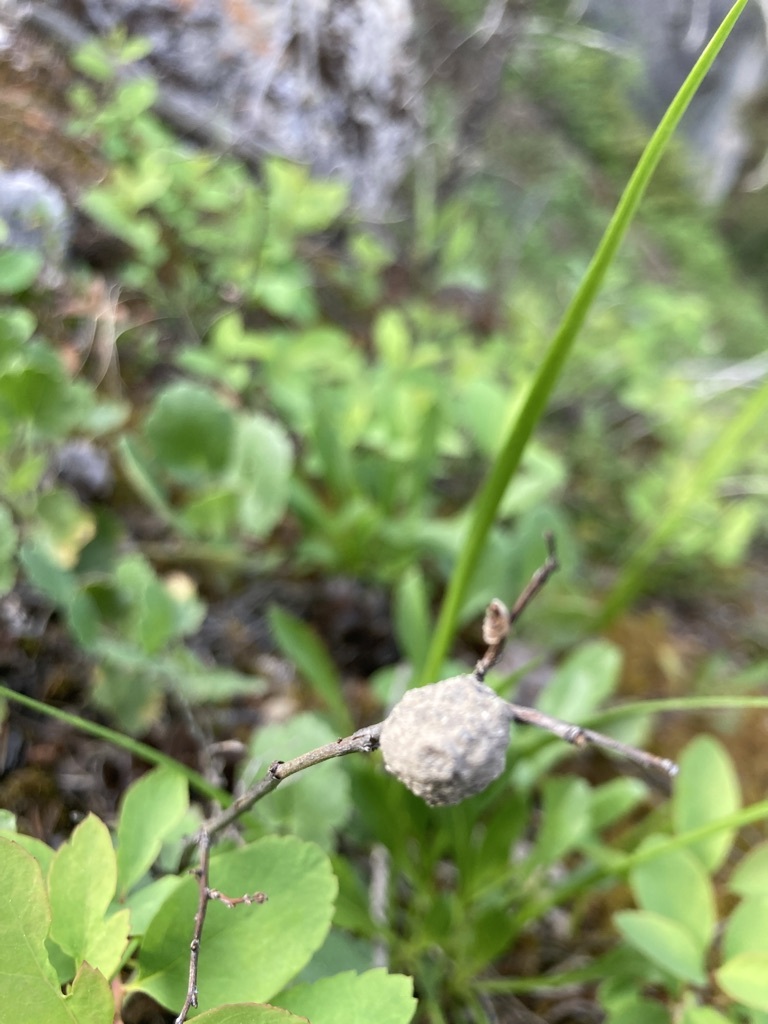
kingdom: Animalia
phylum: Arthropoda
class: Insecta
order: Hymenoptera
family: Vespidae
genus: Eumenes
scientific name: Eumenes
